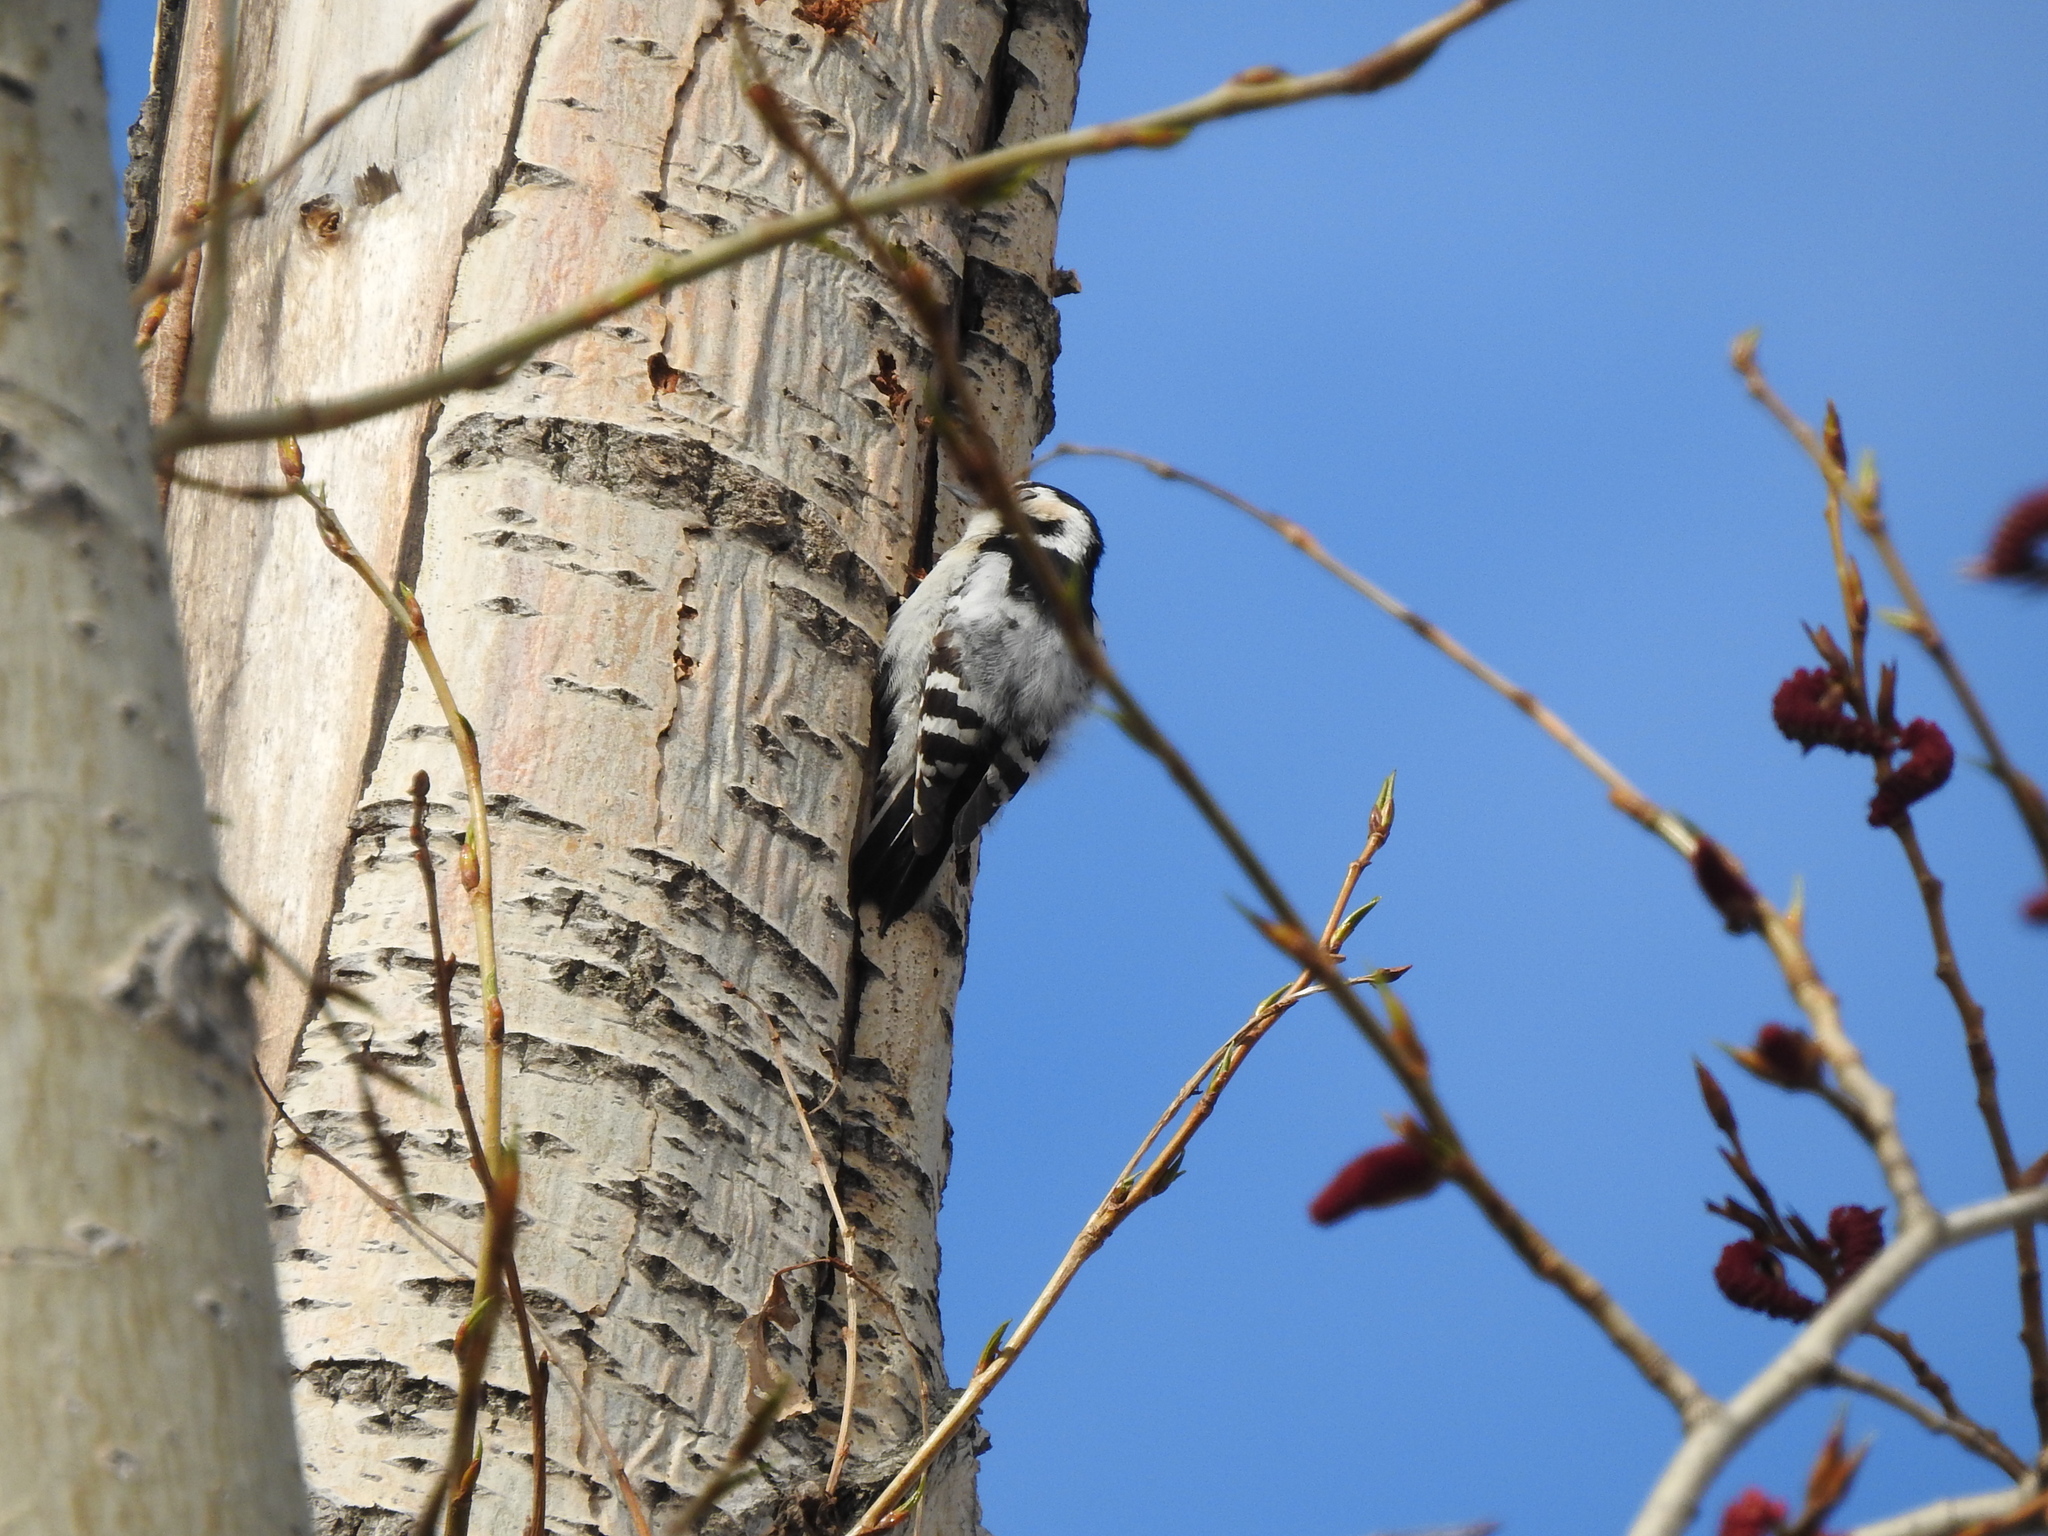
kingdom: Animalia
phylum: Chordata
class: Aves
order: Piciformes
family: Picidae
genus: Dryobates
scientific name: Dryobates minor
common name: Lesser spotted woodpecker
